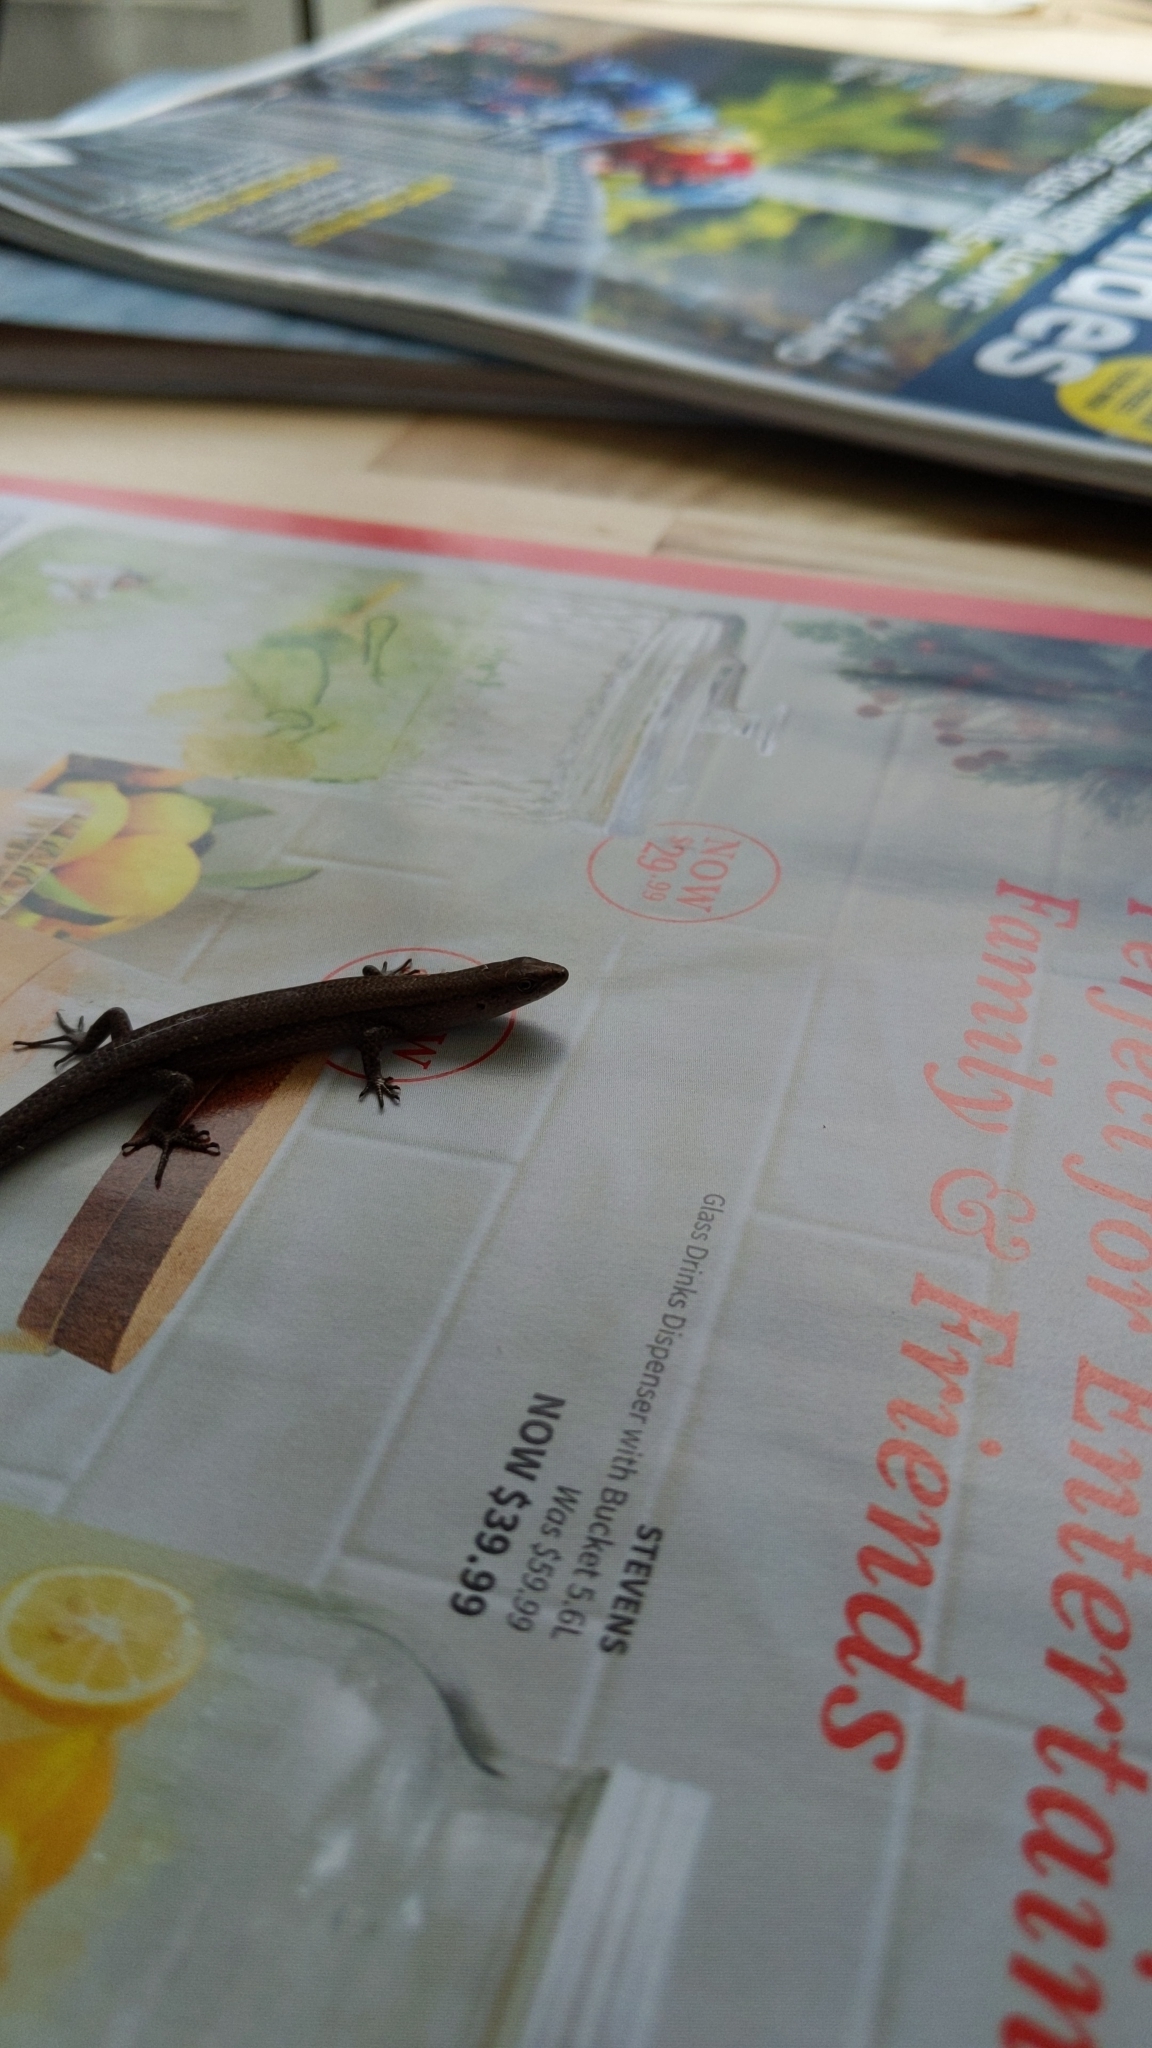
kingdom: Animalia
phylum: Chordata
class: Squamata
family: Scincidae
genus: Lampropholis
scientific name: Lampropholis delicata
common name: Plague skink
